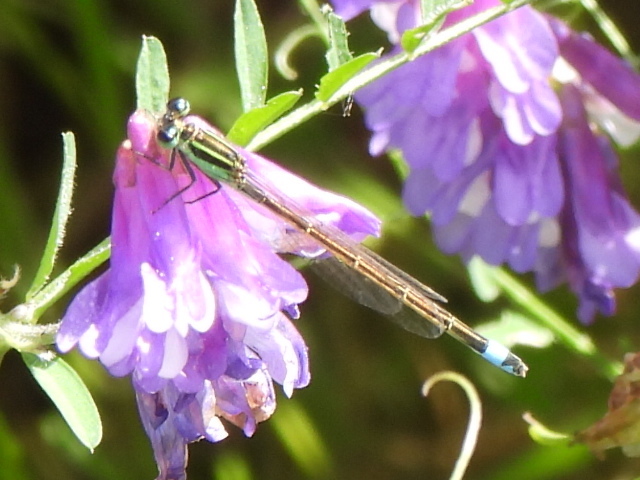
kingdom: Animalia
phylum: Arthropoda
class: Insecta
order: Odonata
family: Coenagrionidae
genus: Ischnura
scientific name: Ischnura ramburii
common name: Rambur's forktail
